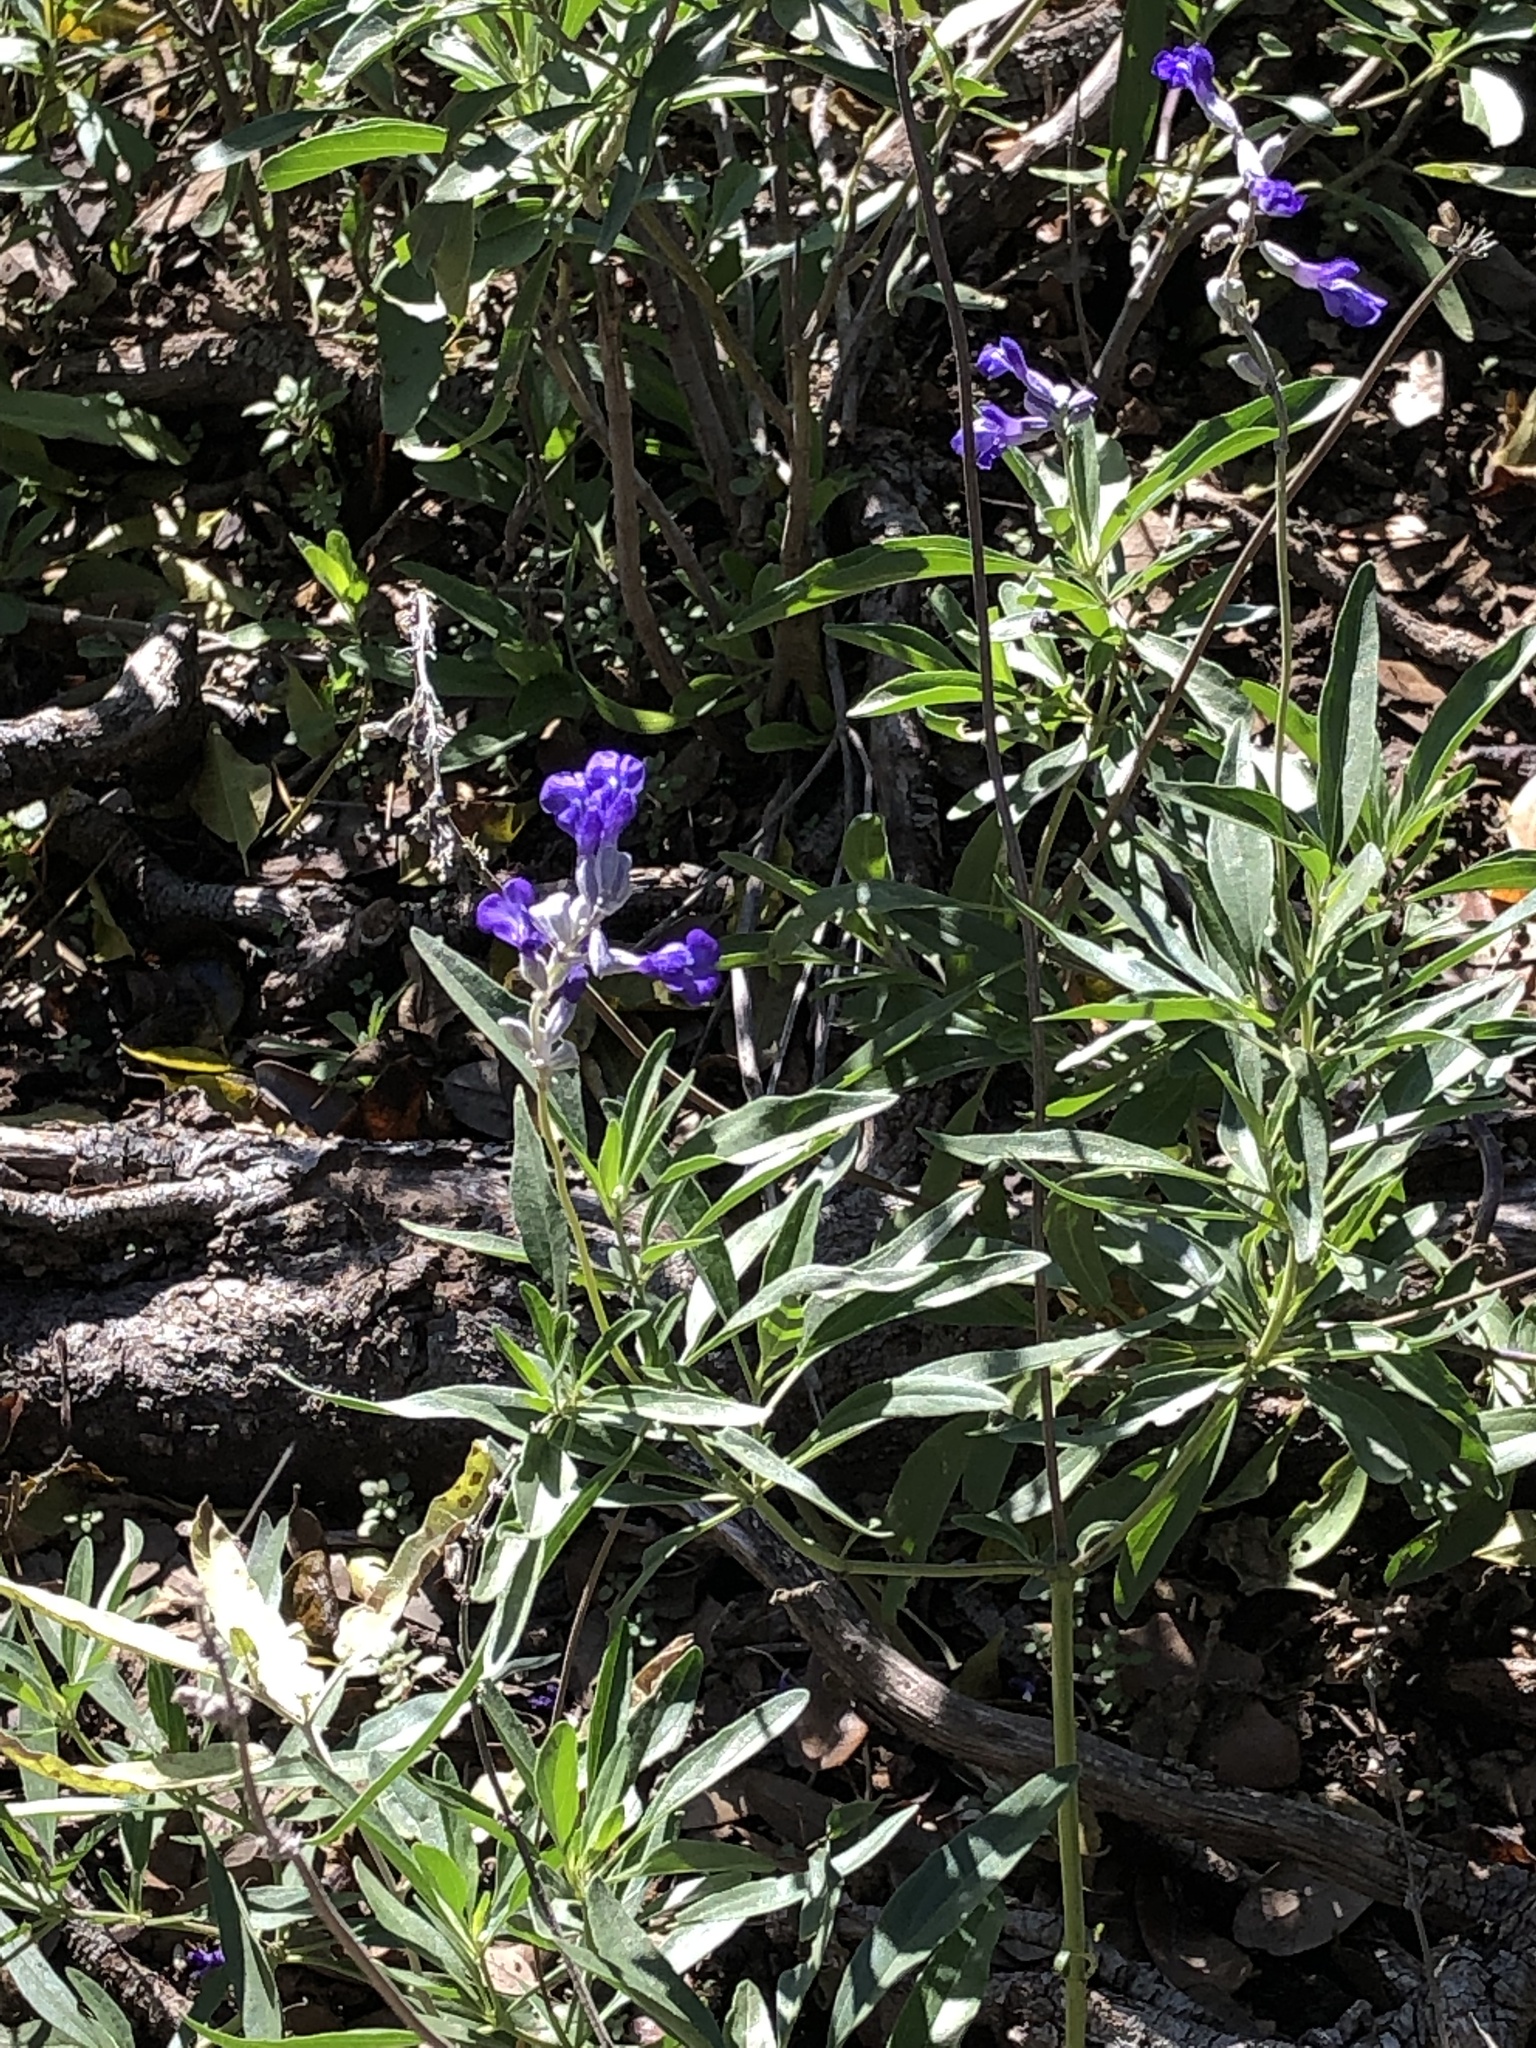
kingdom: Plantae
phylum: Tracheophyta
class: Magnoliopsida
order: Lamiales
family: Lamiaceae
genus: Salvia
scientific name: Salvia farinacea
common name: Mealy sage
